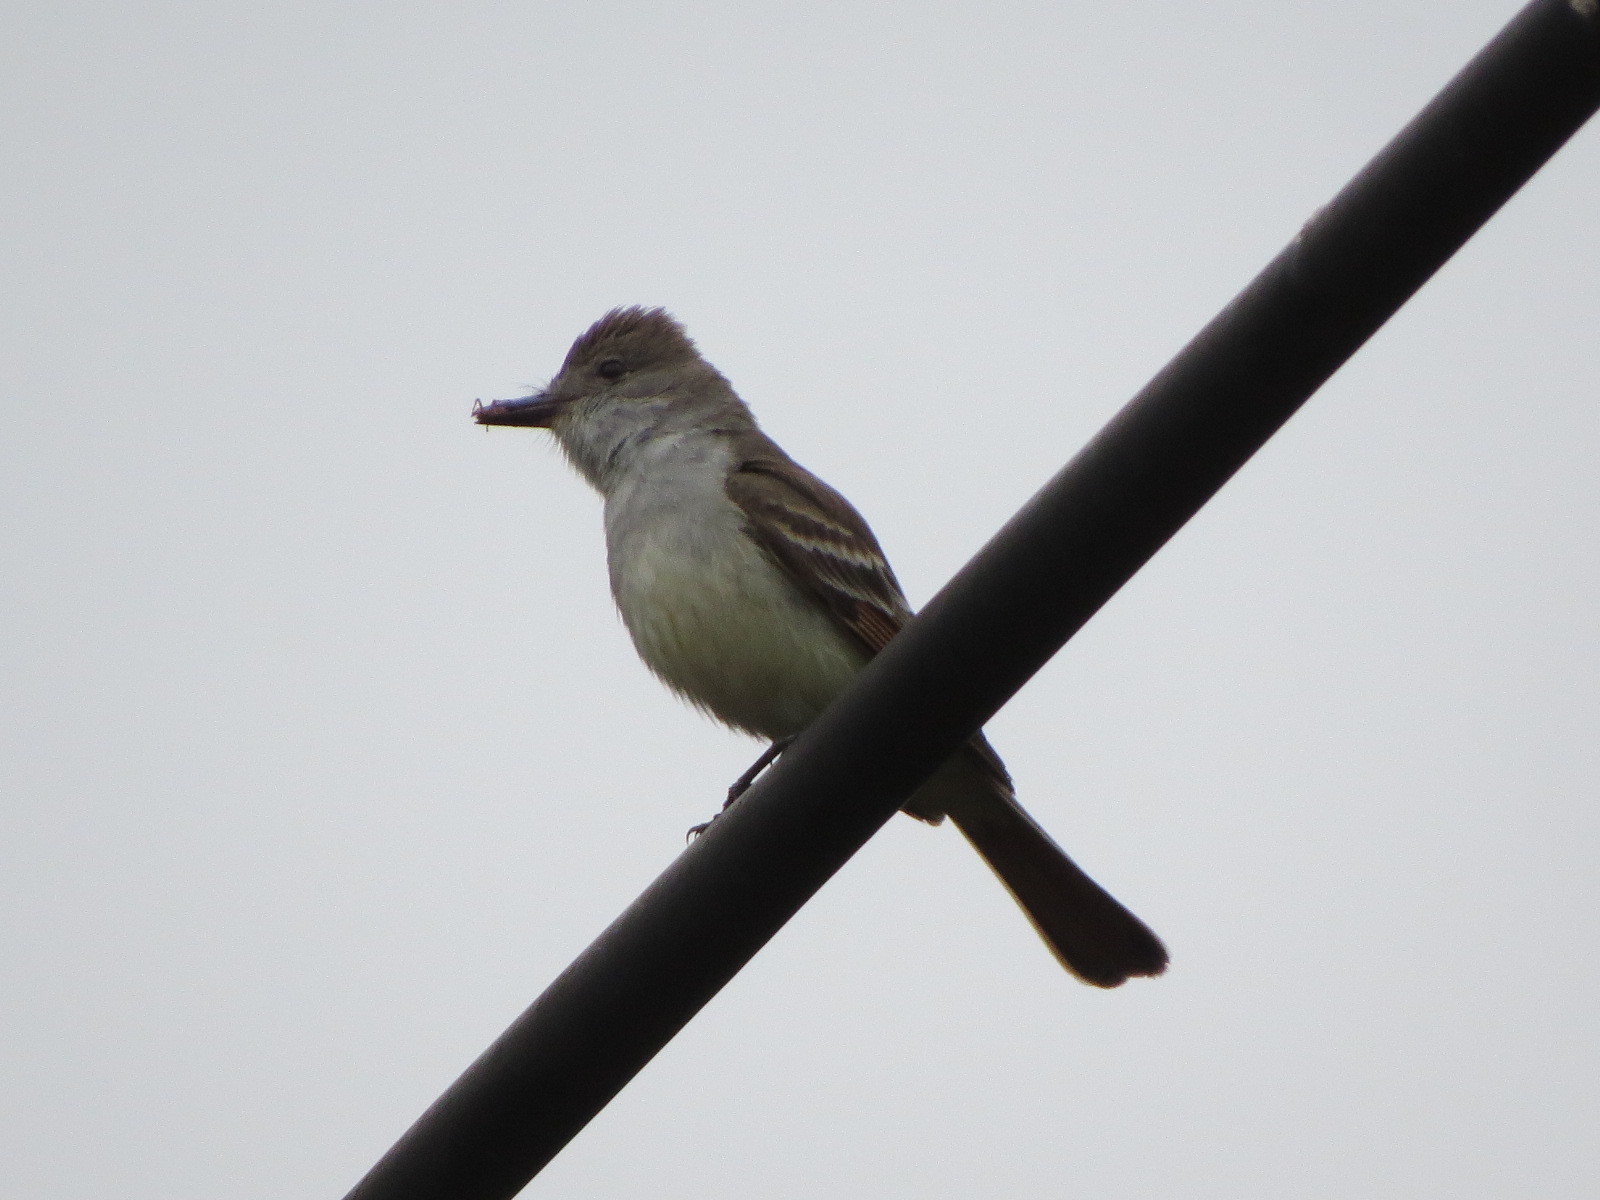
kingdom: Animalia
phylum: Chordata
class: Aves
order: Passeriformes
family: Tyrannidae
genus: Myiarchus
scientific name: Myiarchus cinerascens
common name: Ash-throated flycatcher
